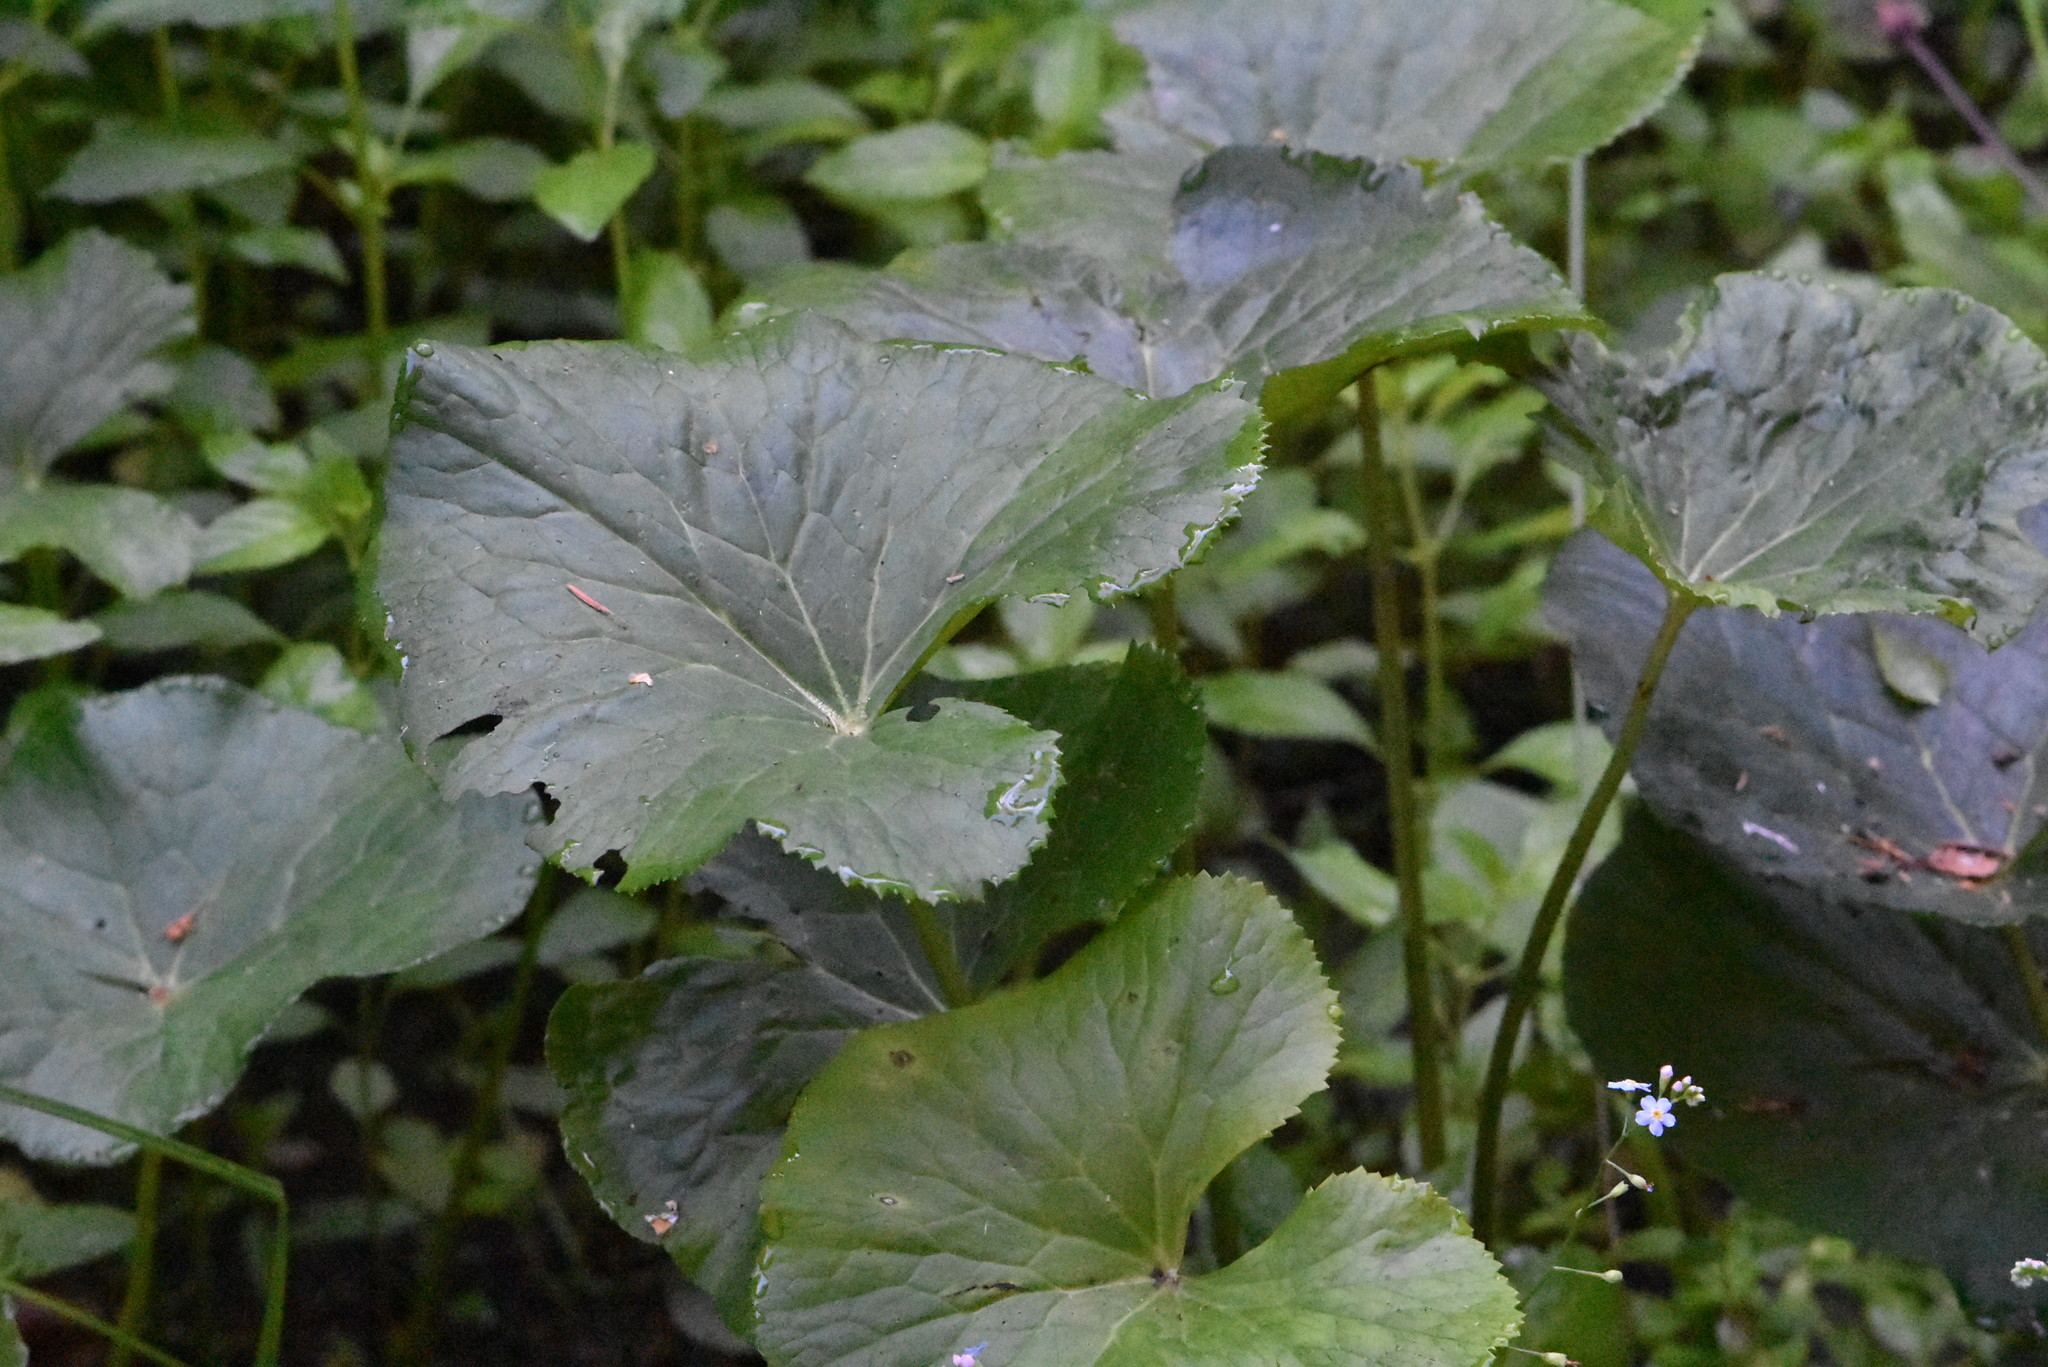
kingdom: Plantae
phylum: Tracheophyta
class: Magnoliopsida
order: Ranunculales
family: Ranunculaceae
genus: Caltha
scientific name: Caltha palustris
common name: Marsh marigold
